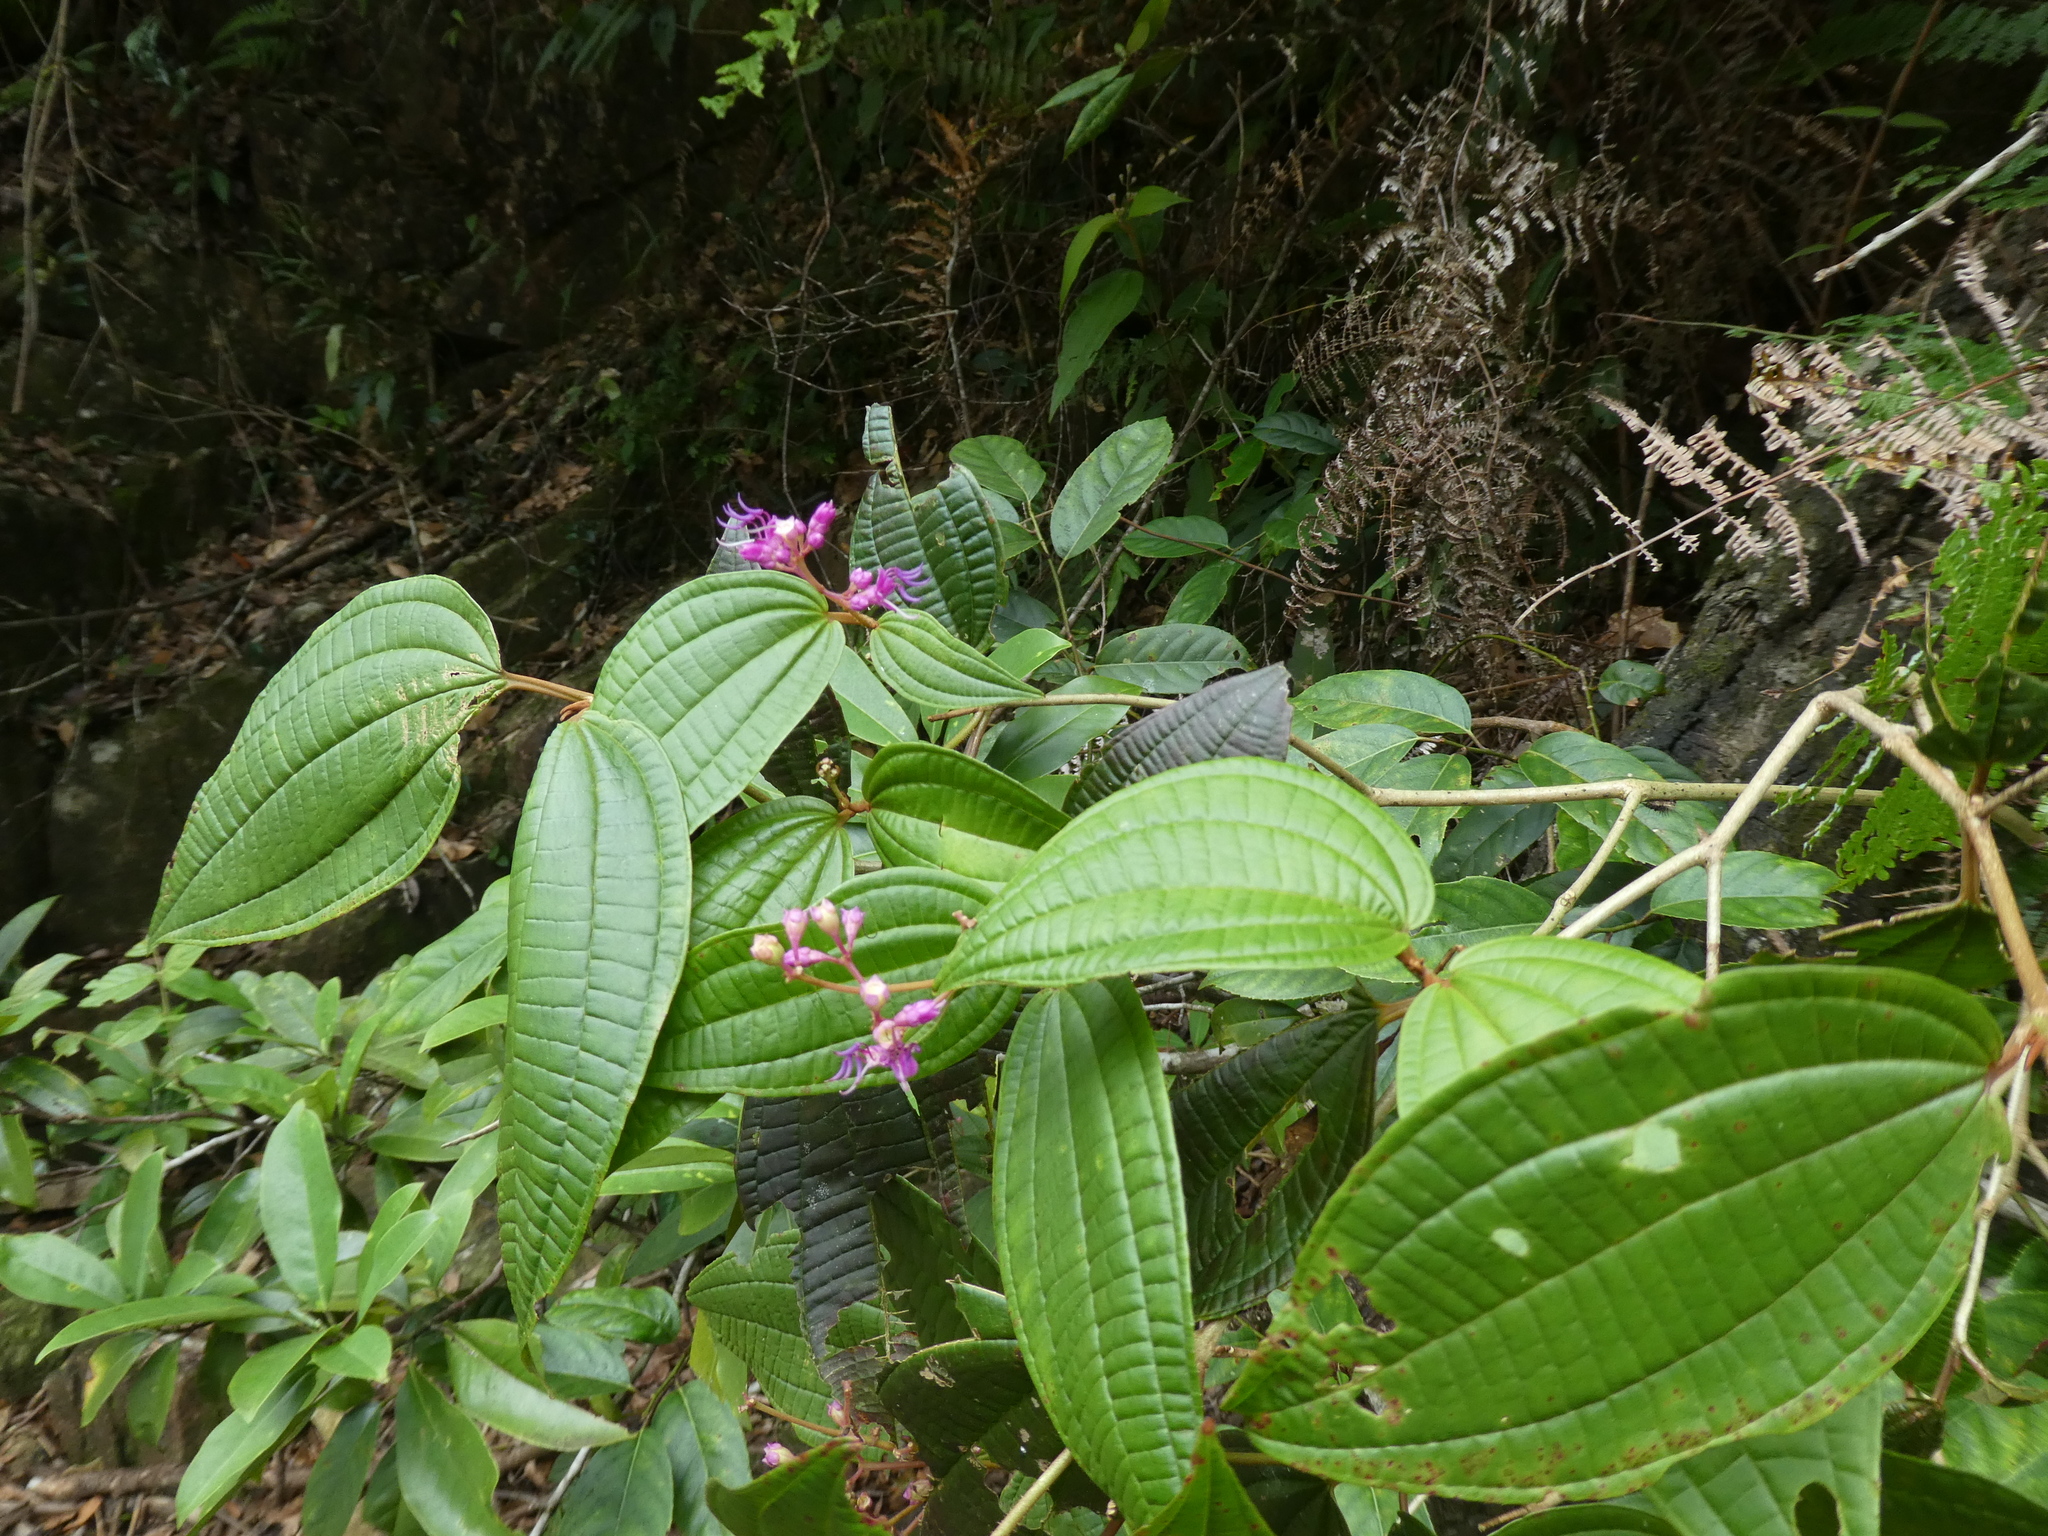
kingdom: Plantae
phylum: Tracheophyta
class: Magnoliopsida
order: Myrtales
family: Melastomataceae
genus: Blastus
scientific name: Blastus pauciflorus
